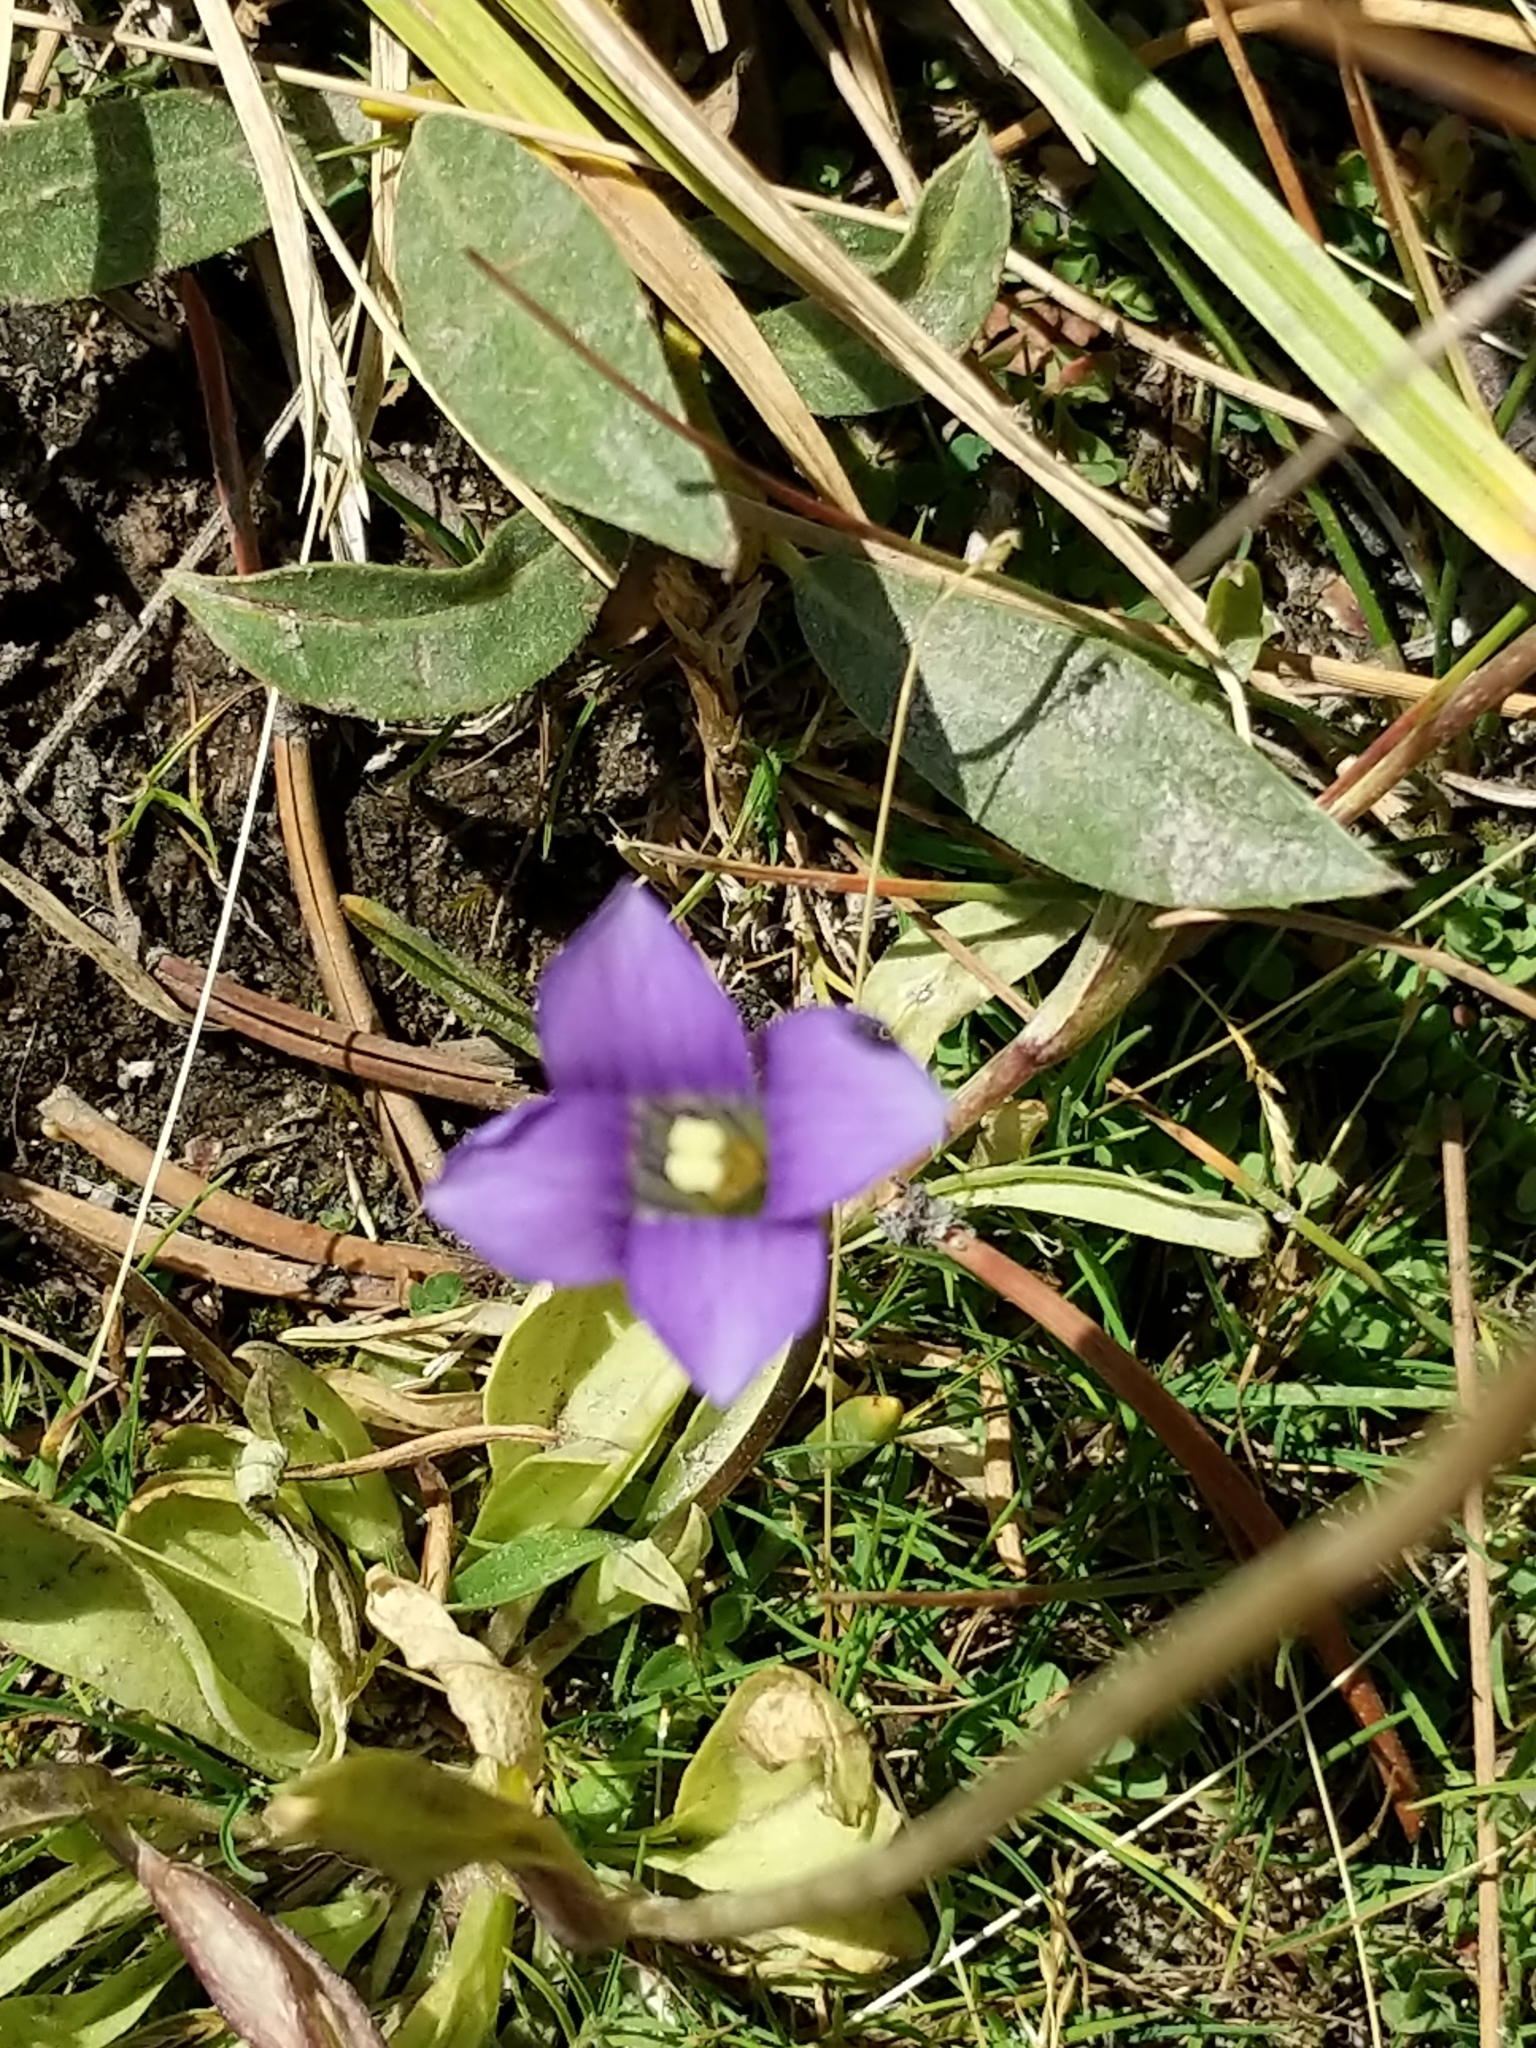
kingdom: Plantae
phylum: Tracheophyta
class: Magnoliopsida
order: Gentianales
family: Gentianaceae
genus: Gentianopsis
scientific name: Gentianopsis holopetala
